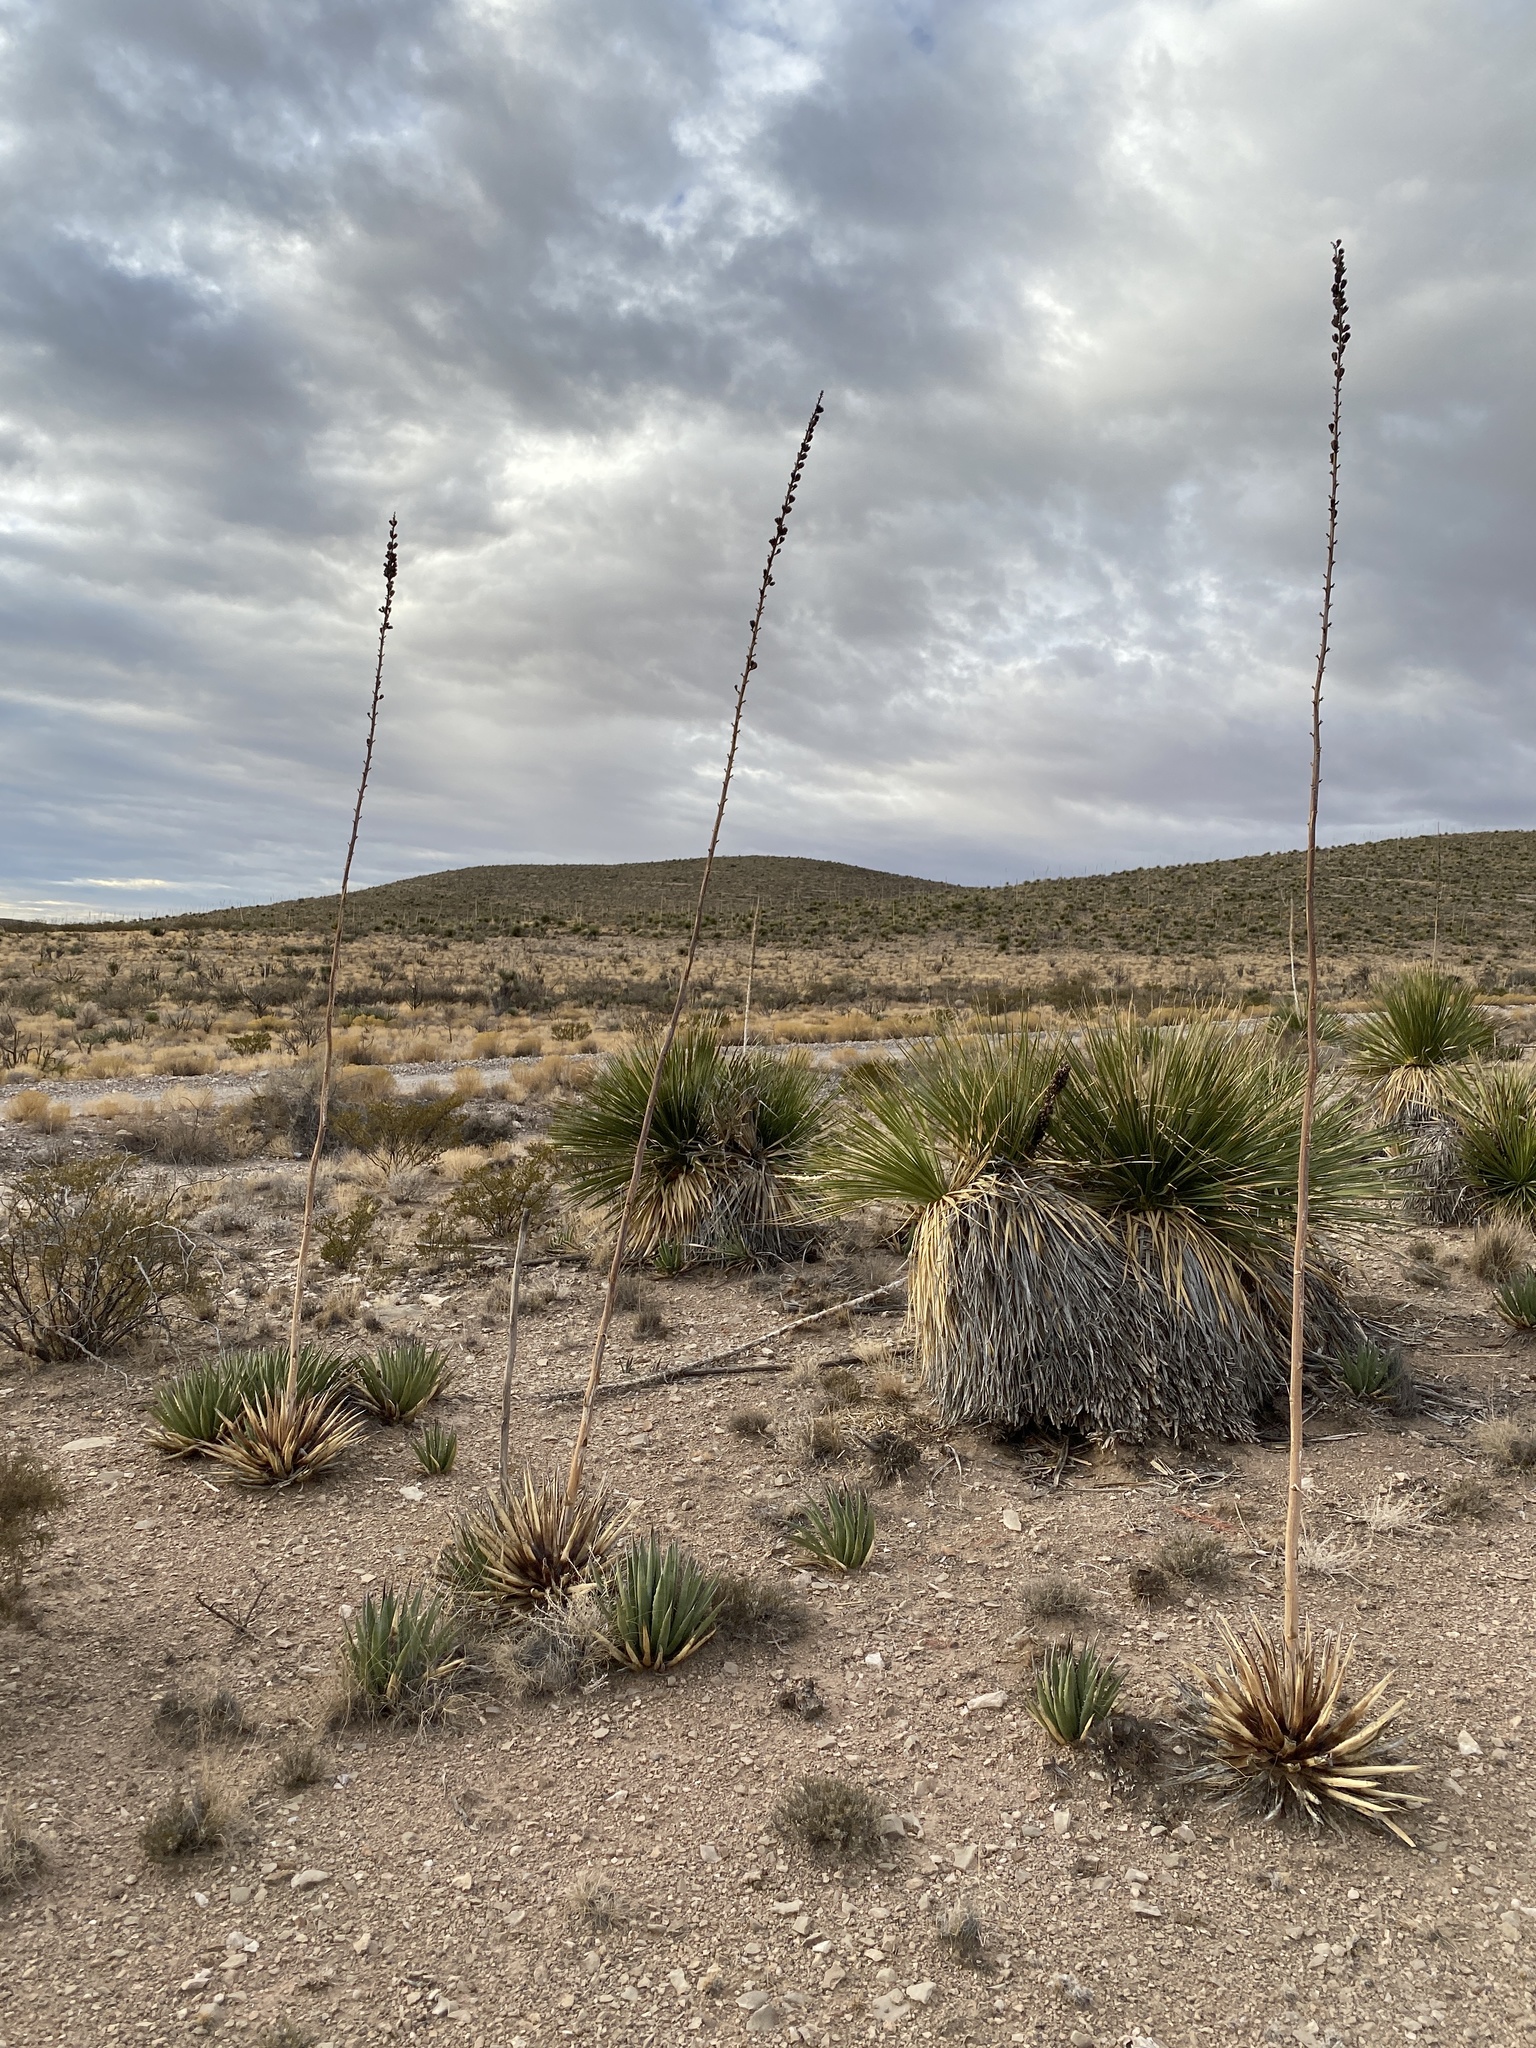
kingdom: Plantae
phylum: Tracheophyta
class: Liliopsida
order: Asparagales
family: Asparagaceae
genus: Agave
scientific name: Agave lechuguilla
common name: Lecheguilla agave
